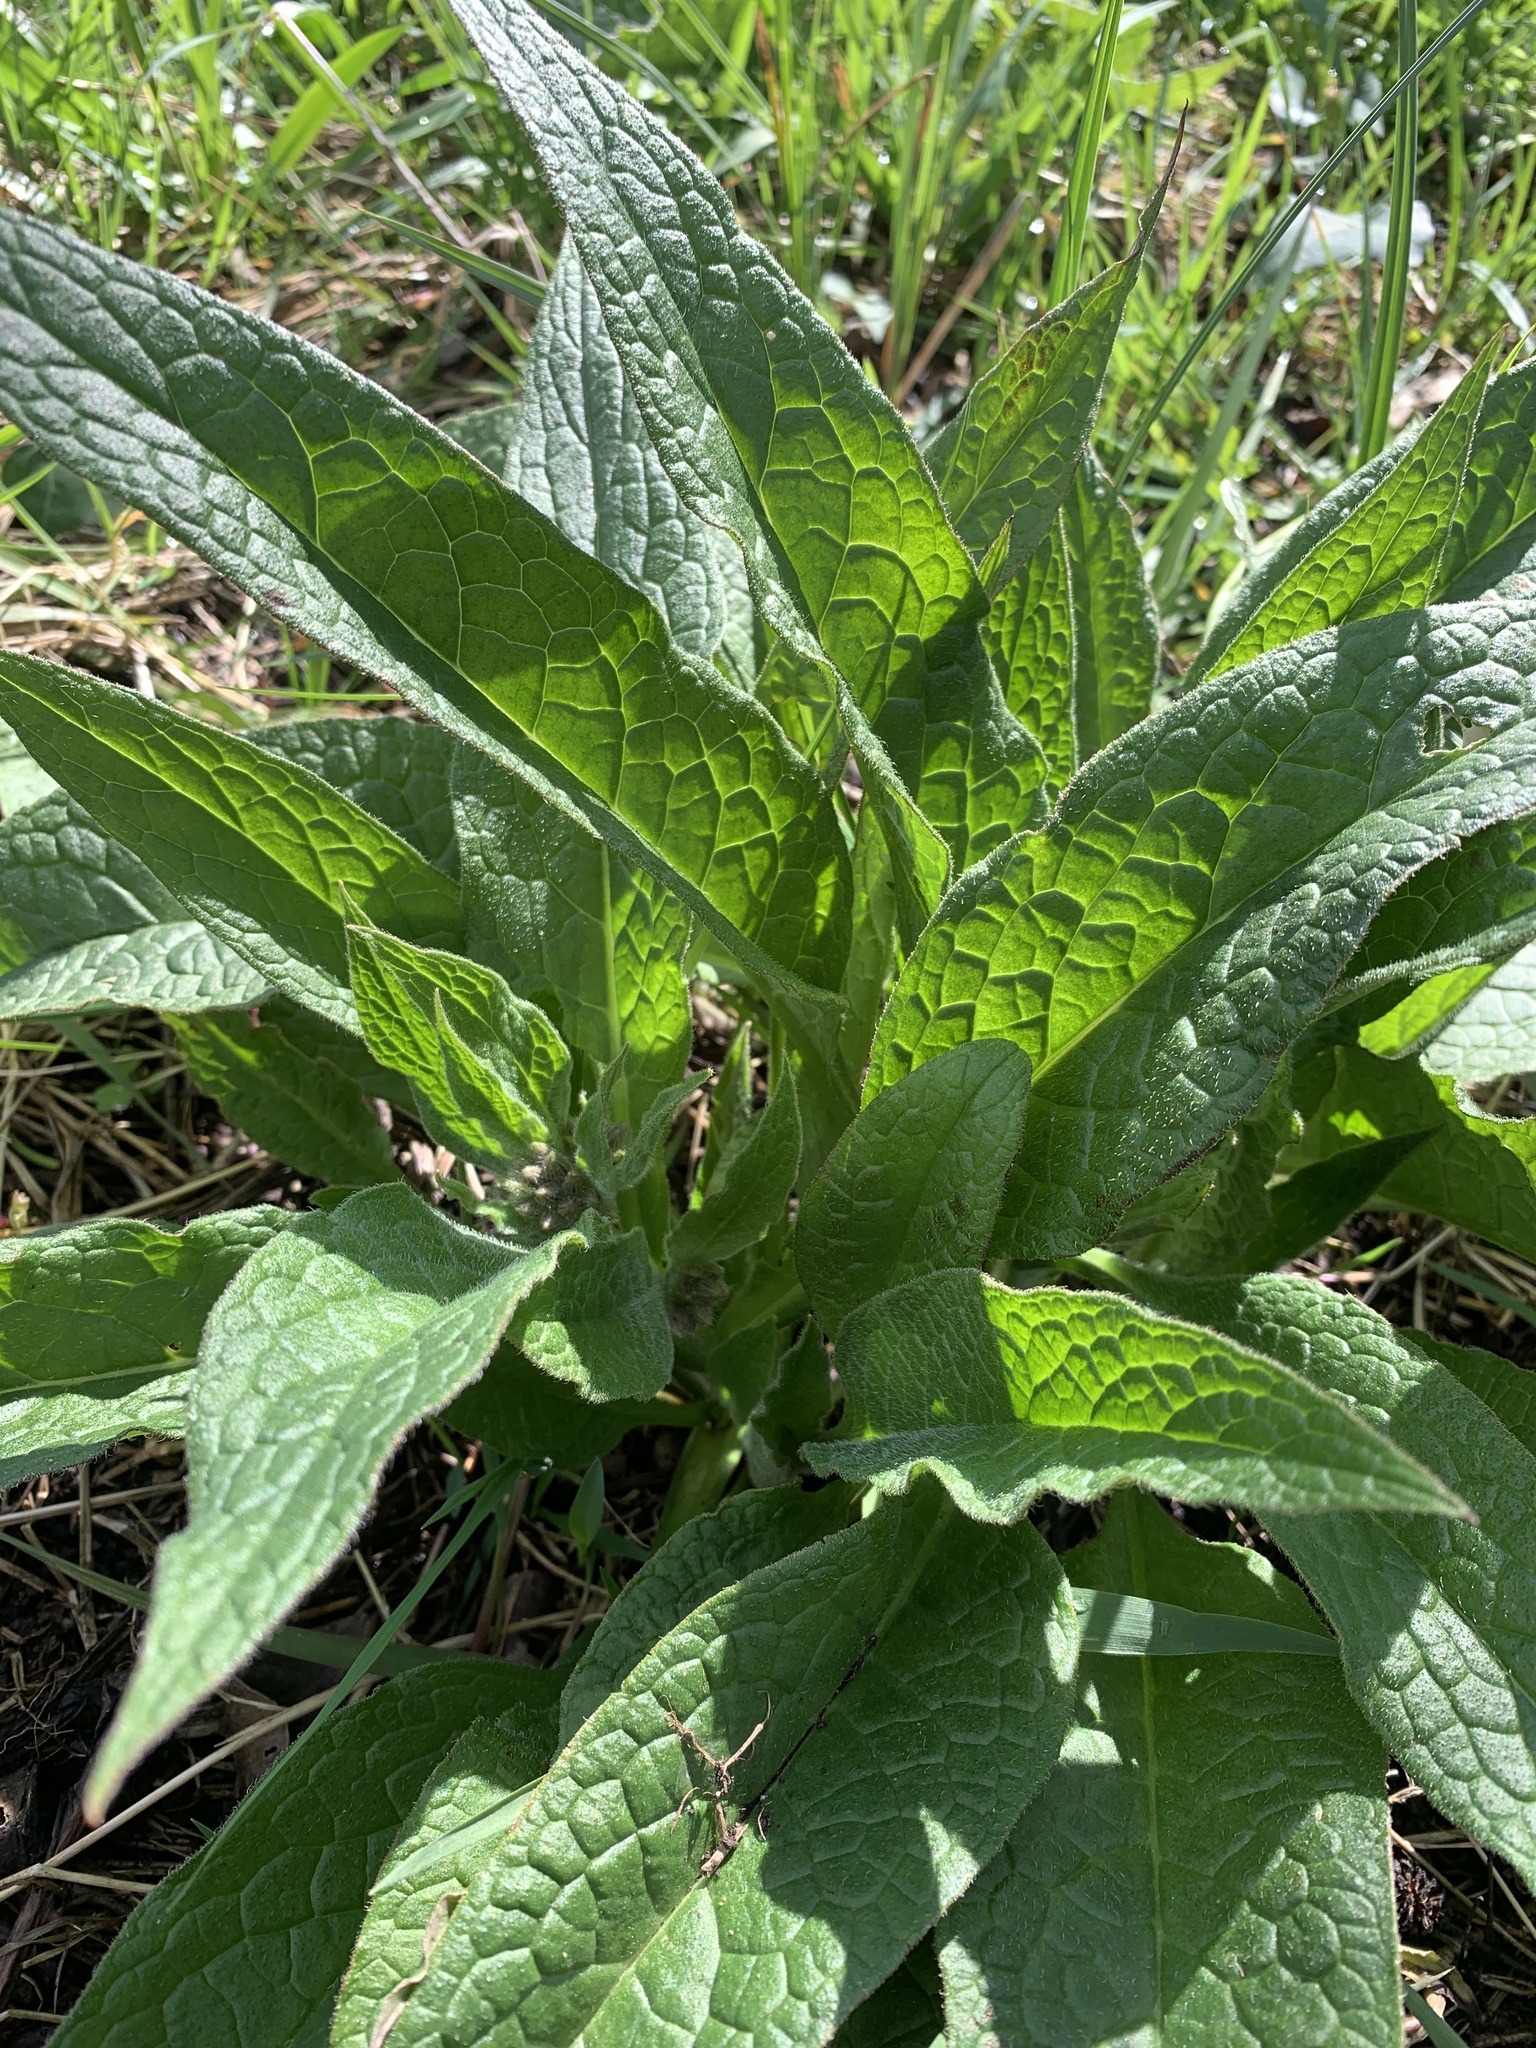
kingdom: Plantae
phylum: Tracheophyta
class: Magnoliopsida
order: Boraginales
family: Boraginaceae
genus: Symphytum
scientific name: Symphytum officinale
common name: Common comfrey
